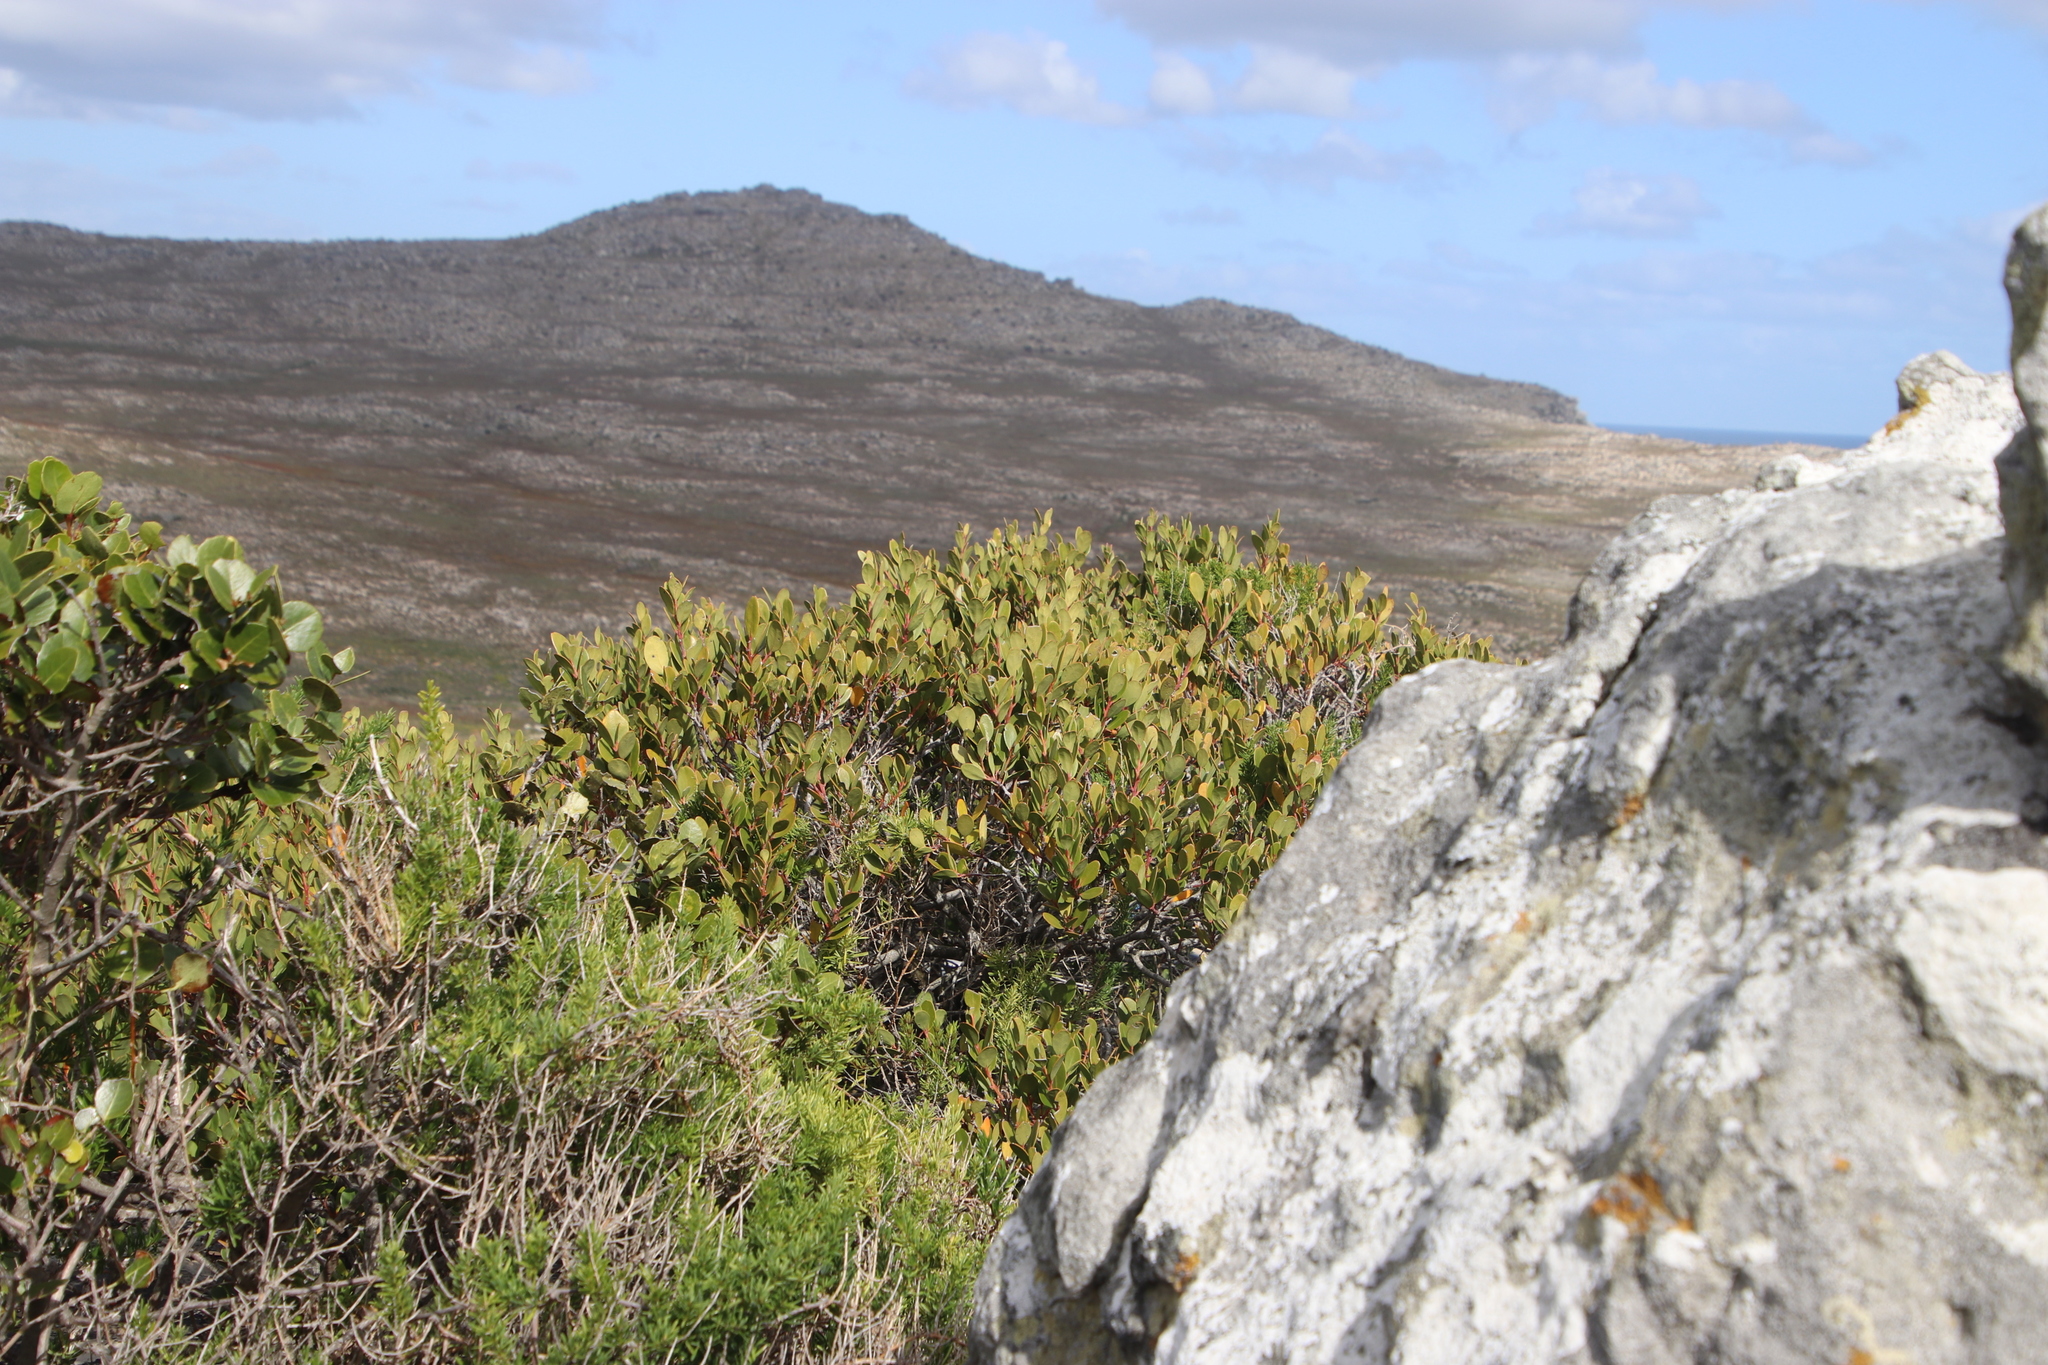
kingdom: Plantae
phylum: Tracheophyta
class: Magnoliopsida
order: Ericales
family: Ebenaceae
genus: Euclea
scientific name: Euclea racemosa
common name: Dune guarri
